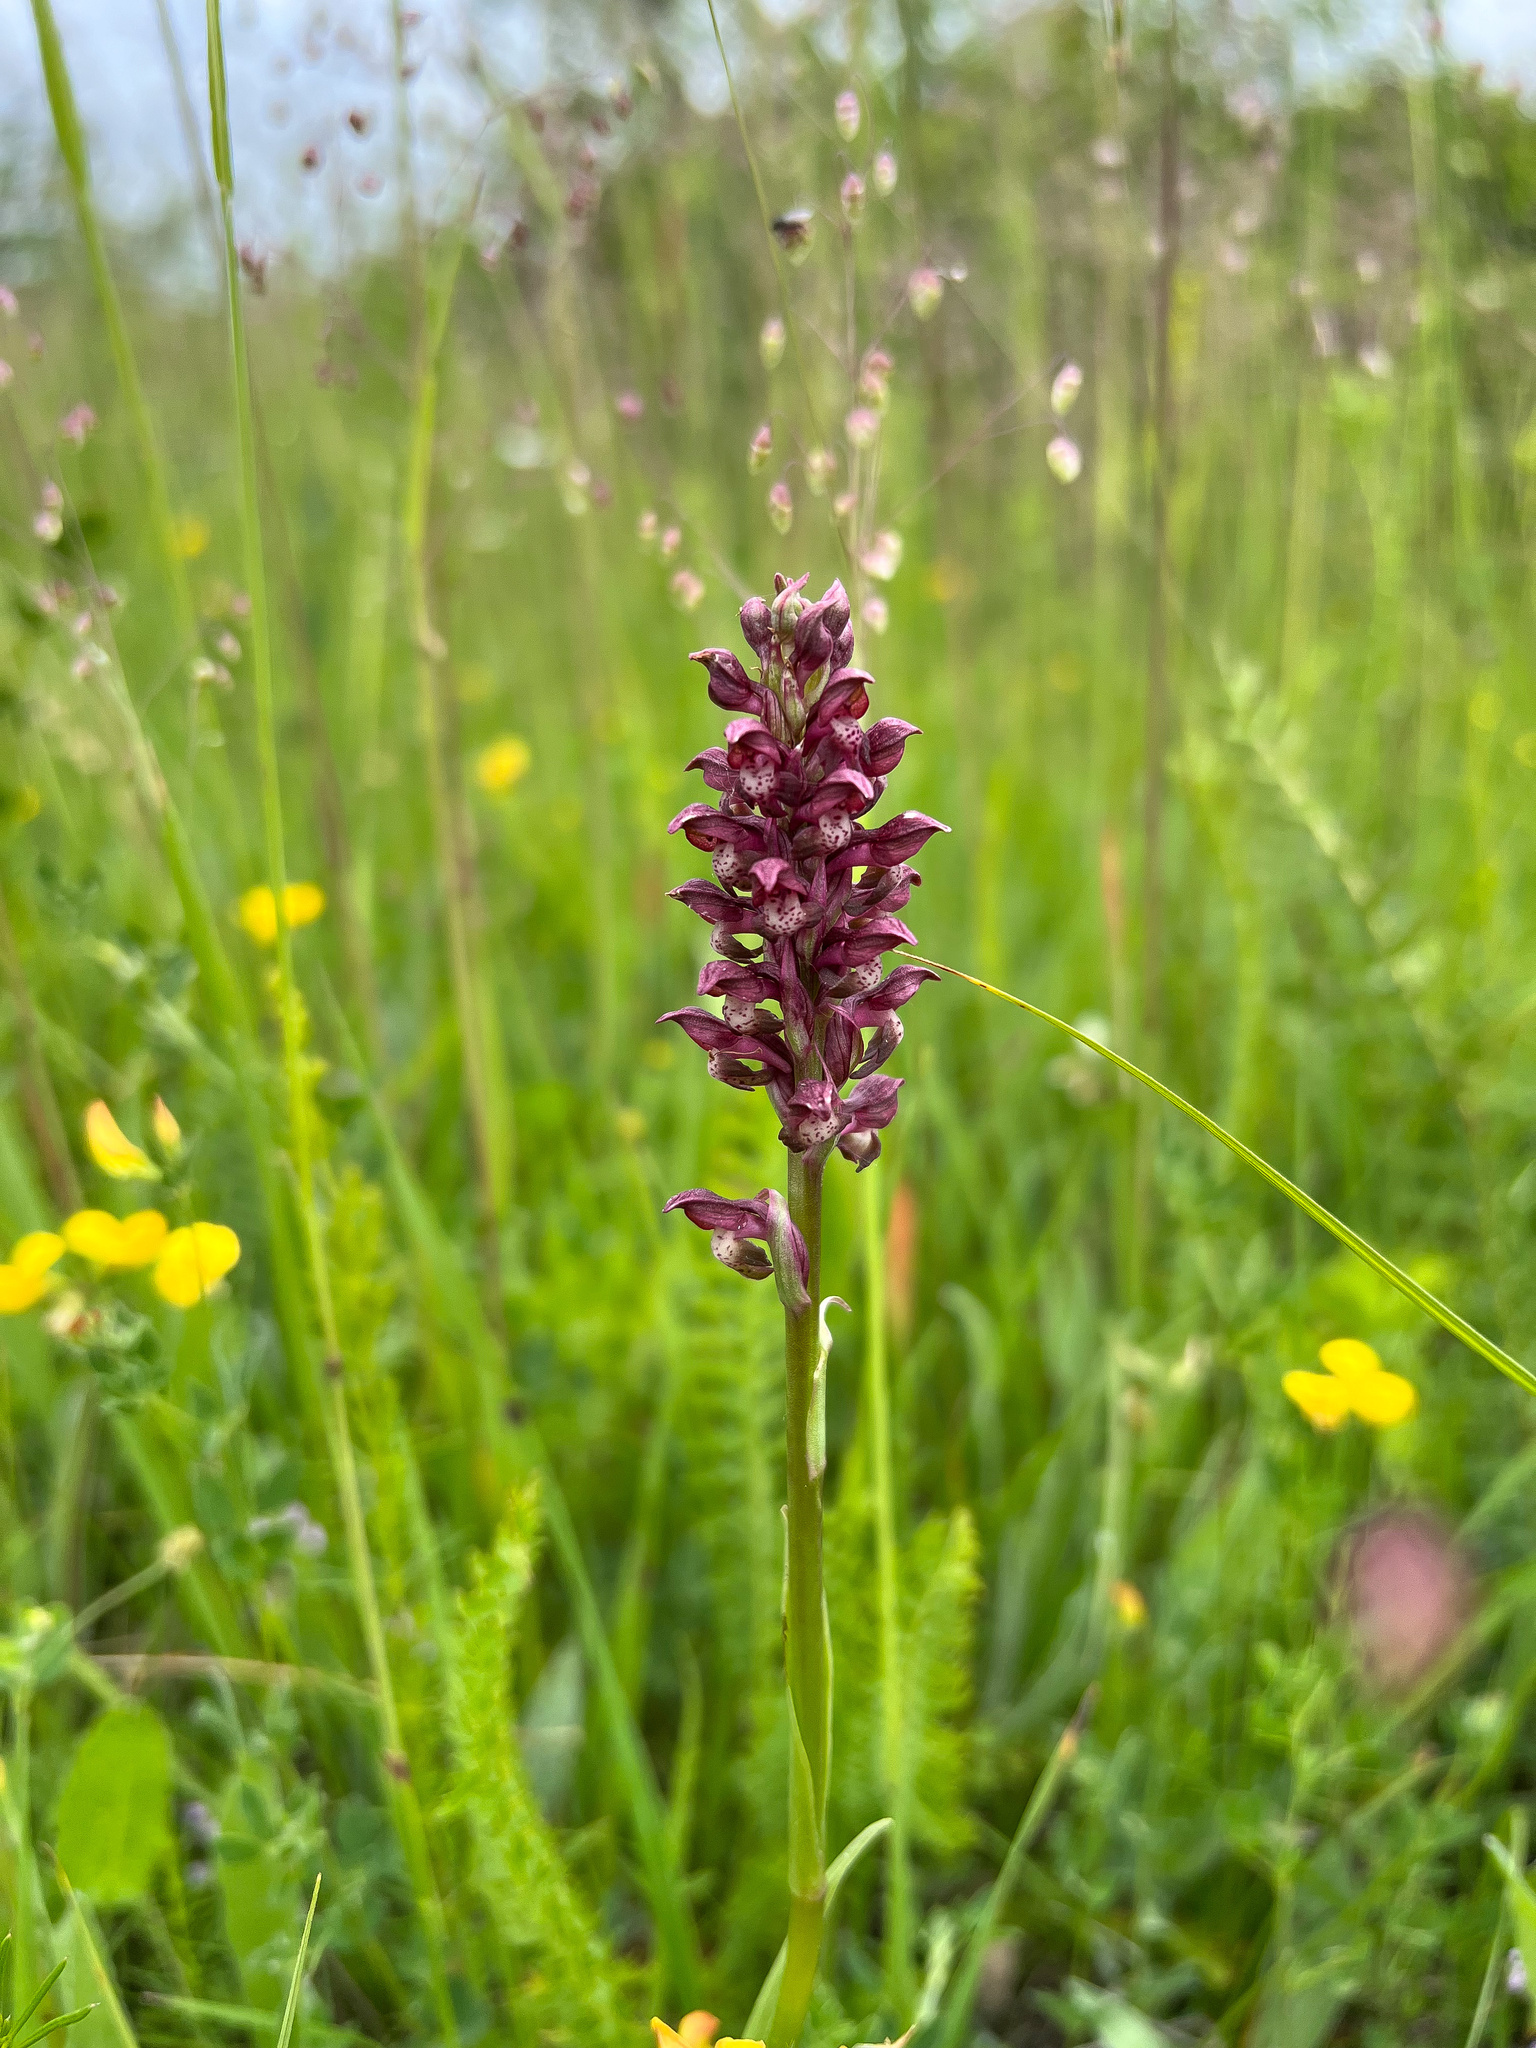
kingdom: Plantae
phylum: Tracheophyta
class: Liliopsida
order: Asparagales
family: Orchidaceae
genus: Anacamptis
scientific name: Anacamptis coriophora
